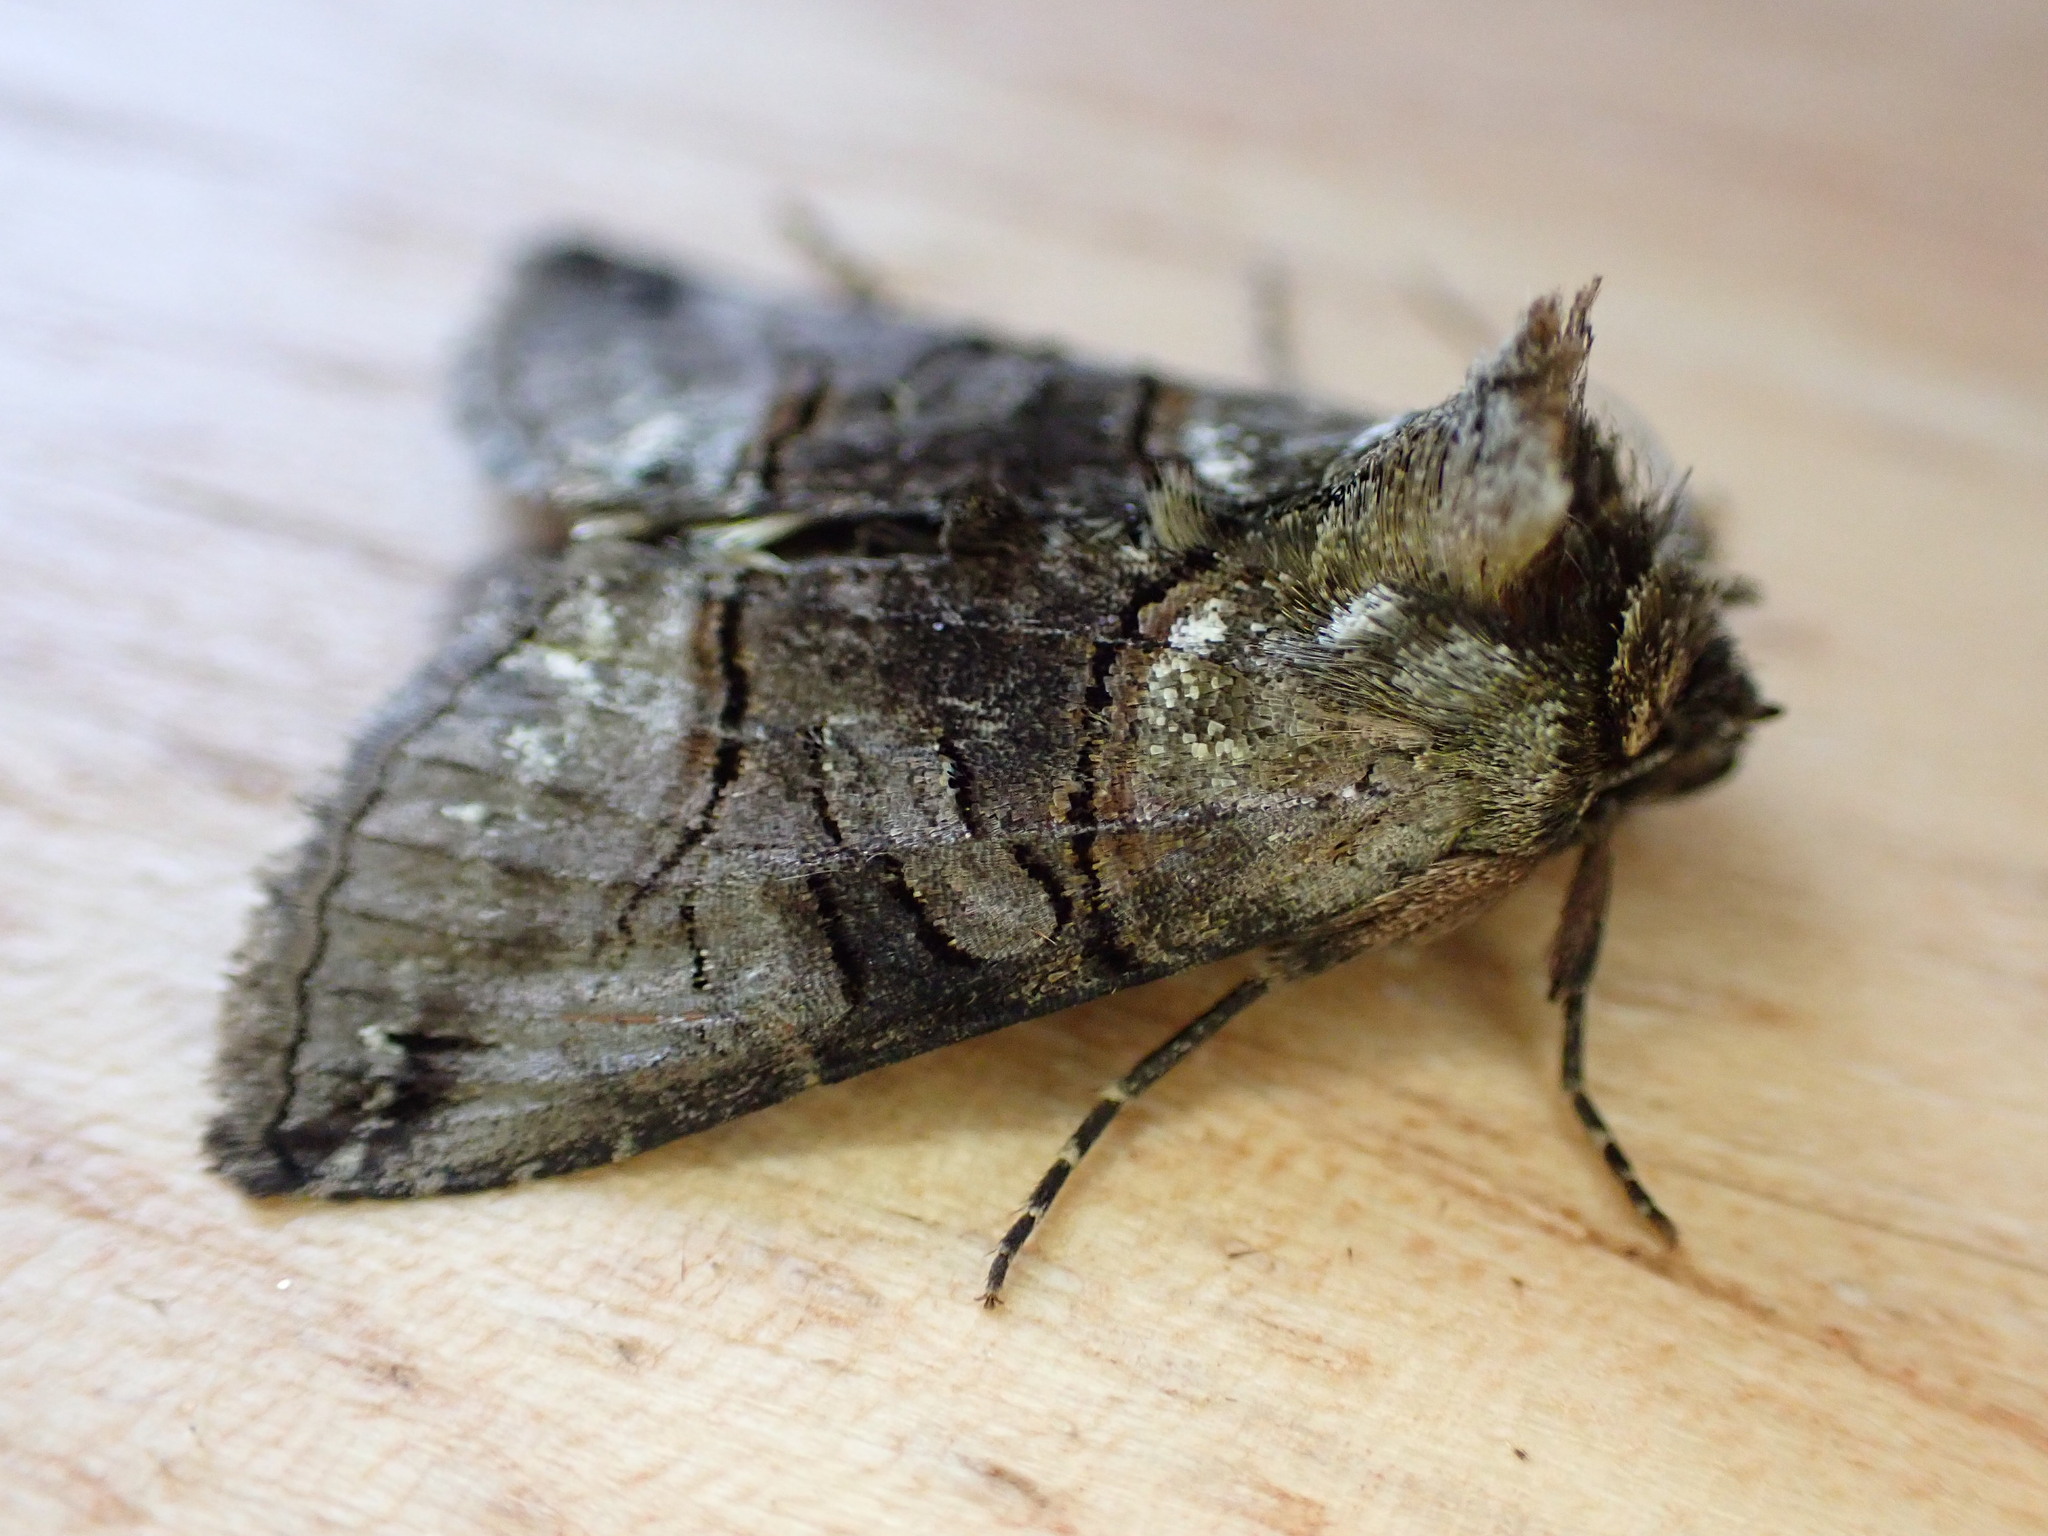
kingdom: Animalia
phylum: Arthropoda
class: Insecta
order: Lepidoptera
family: Noctuidae
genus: Abrostola
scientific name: Abrostola tripartita
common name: Spectacle
